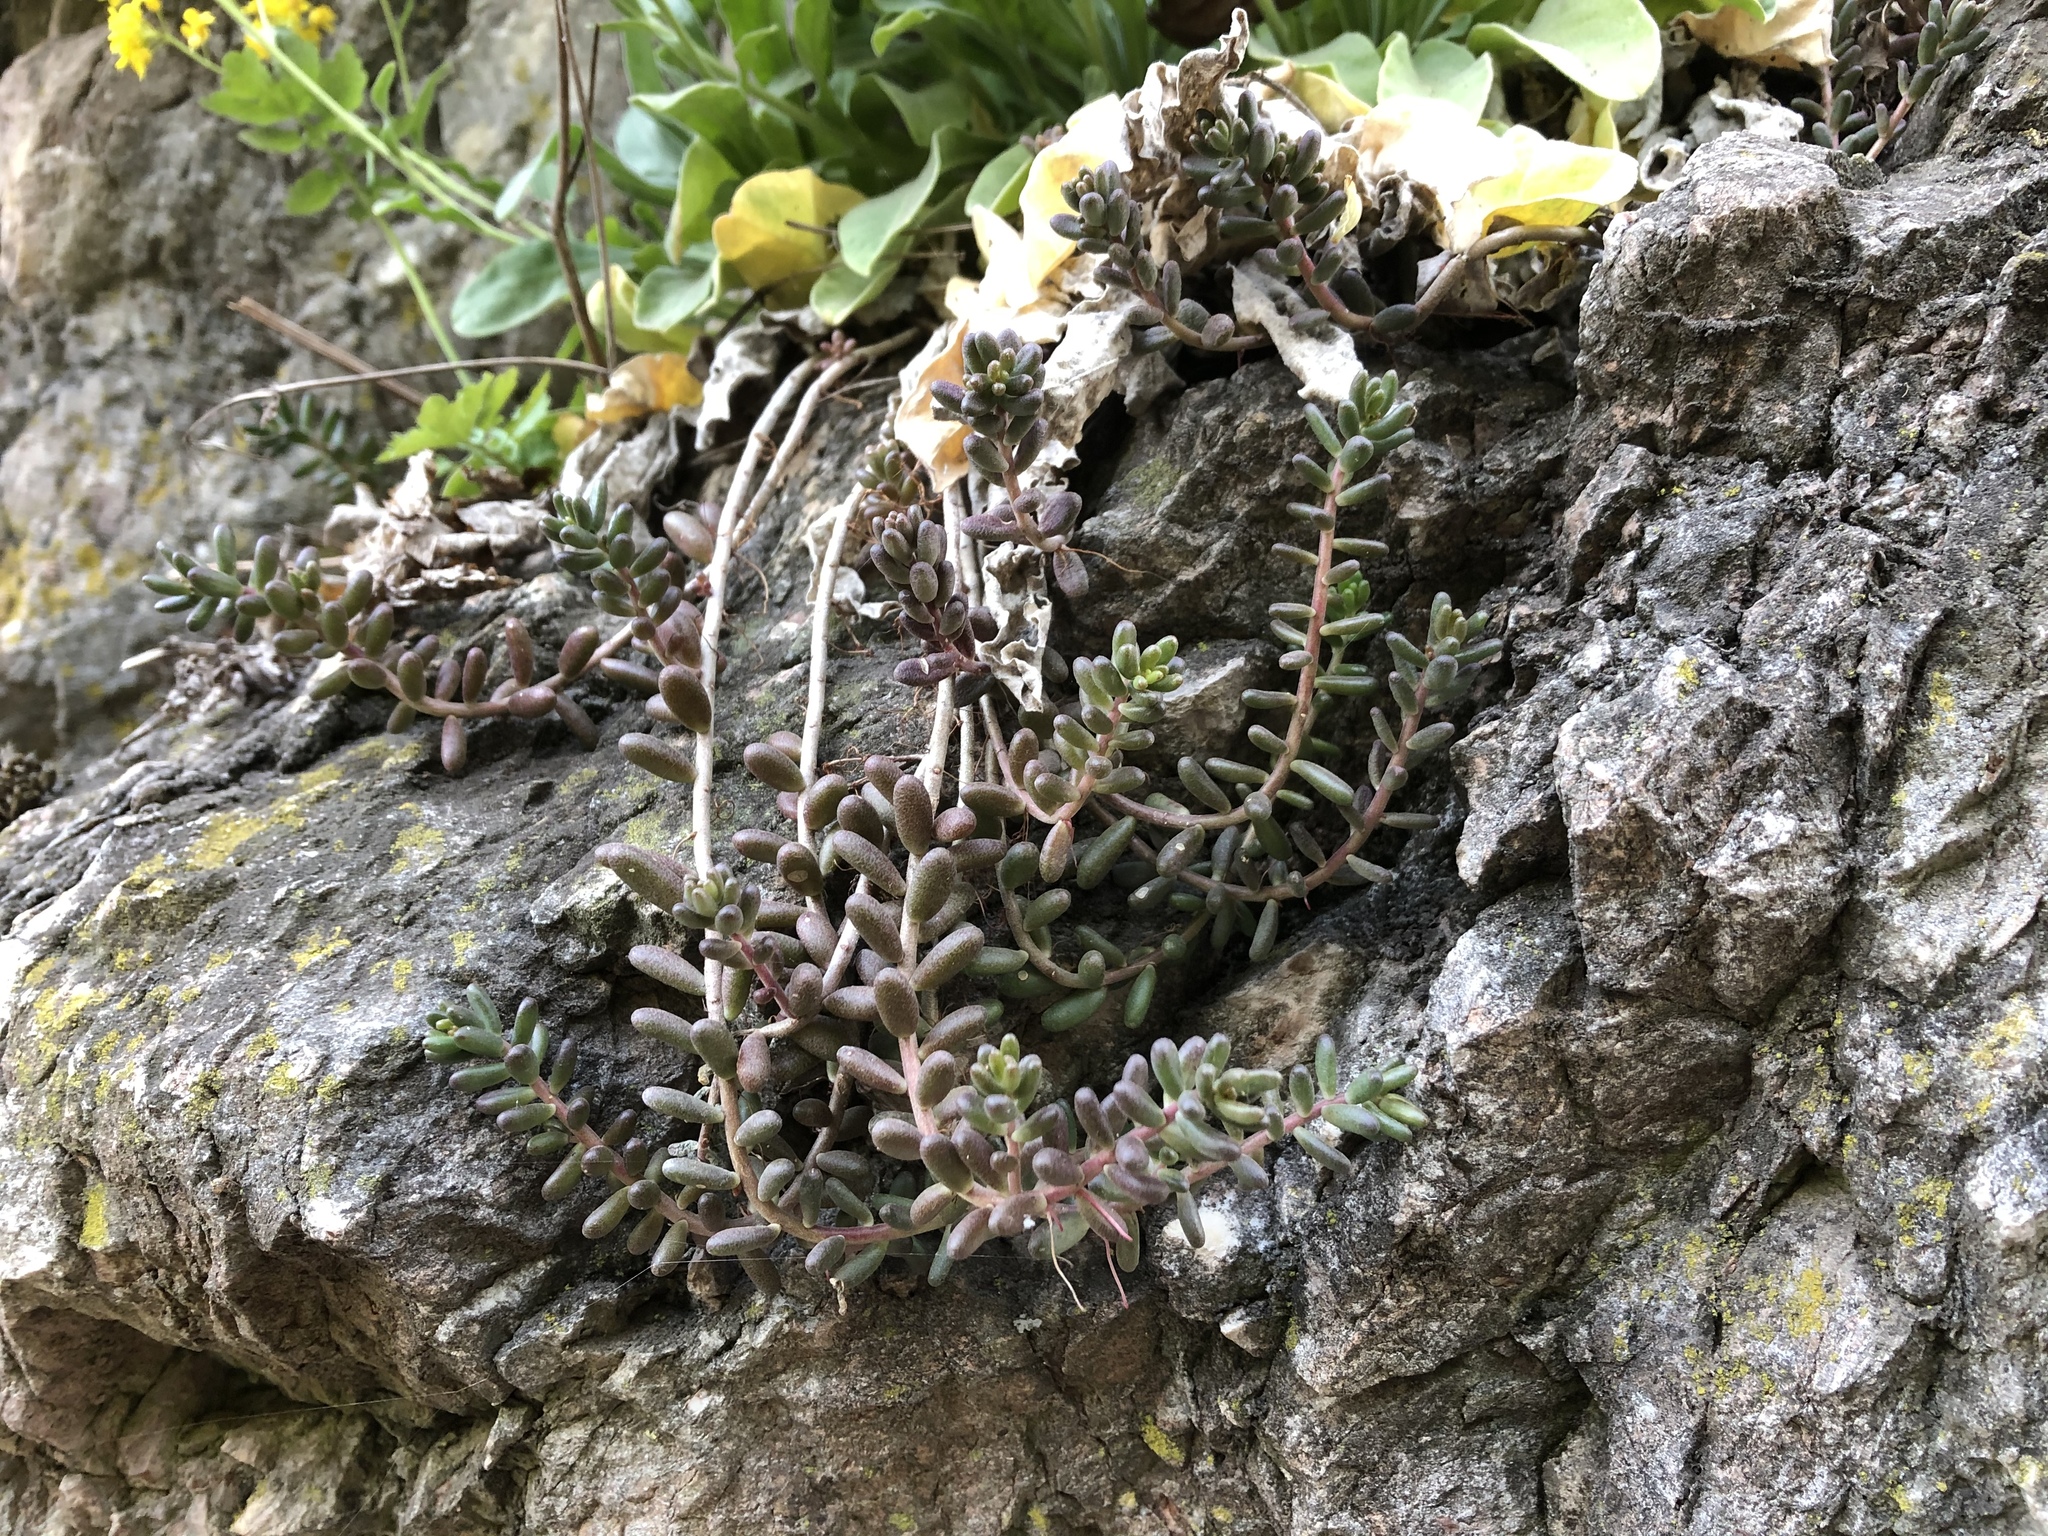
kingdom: Plantae
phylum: Tracheophyta
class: Magnoliopsida
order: Saxifragales
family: Crassulaceae
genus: Sedum
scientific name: Sedum album
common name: White stonecrop
